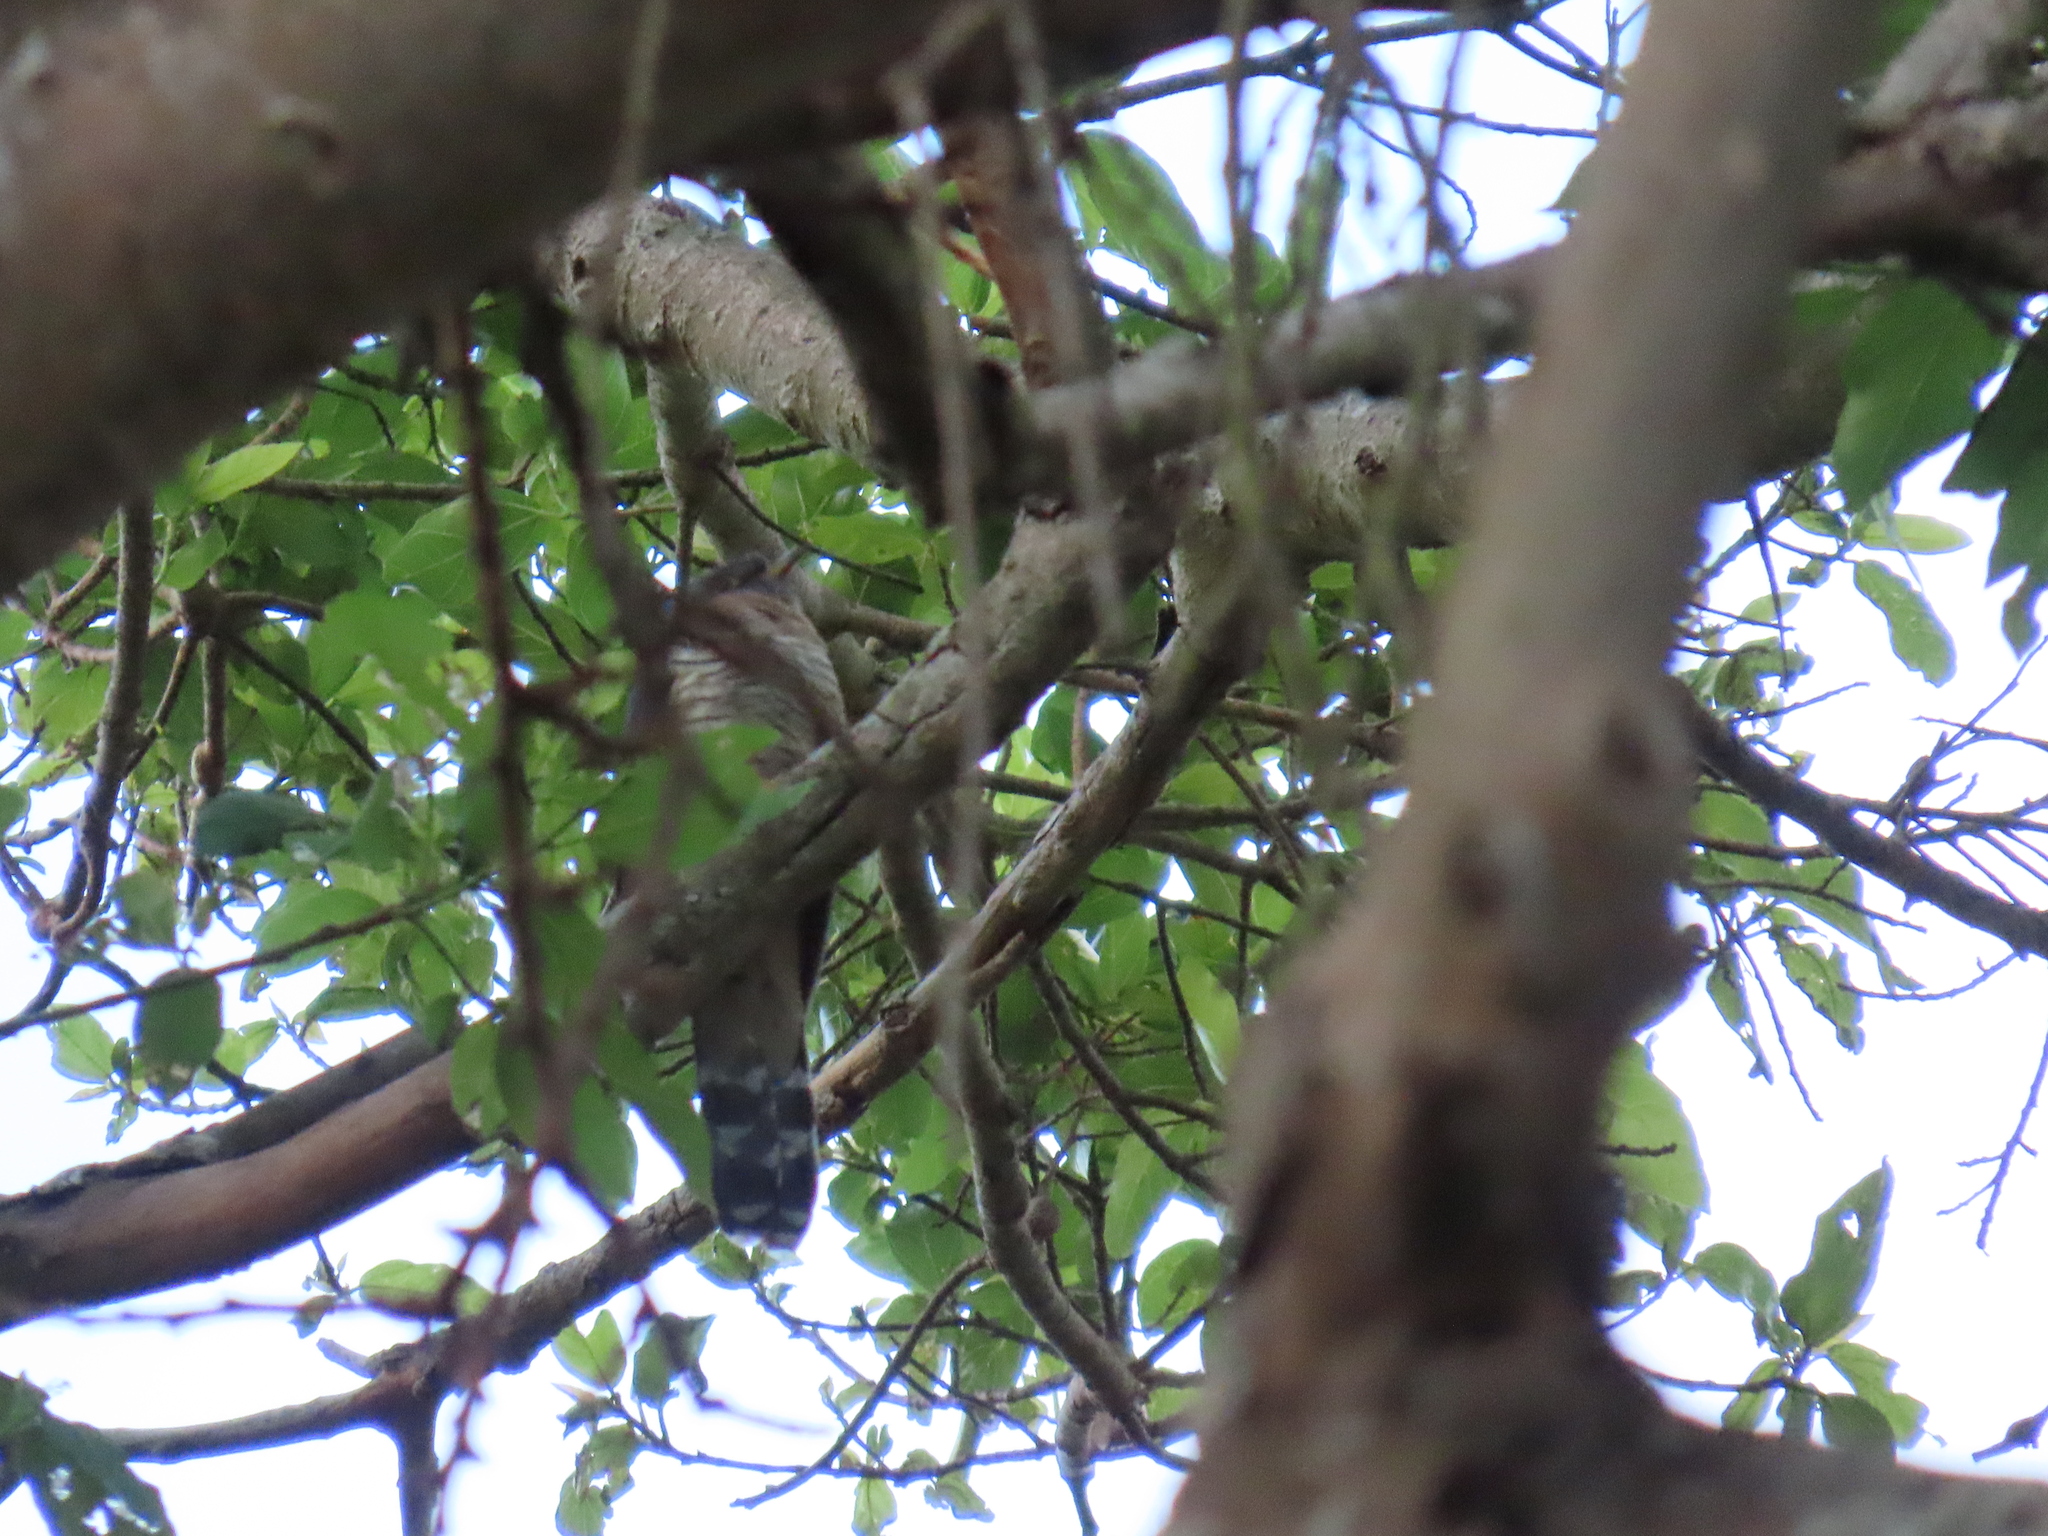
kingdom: Animalia
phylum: Chordata
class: Aves
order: Cuculiformes
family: Cuculidae
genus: Cuculus
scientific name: Cuculus solitarius
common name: Red-chested cuckoo
